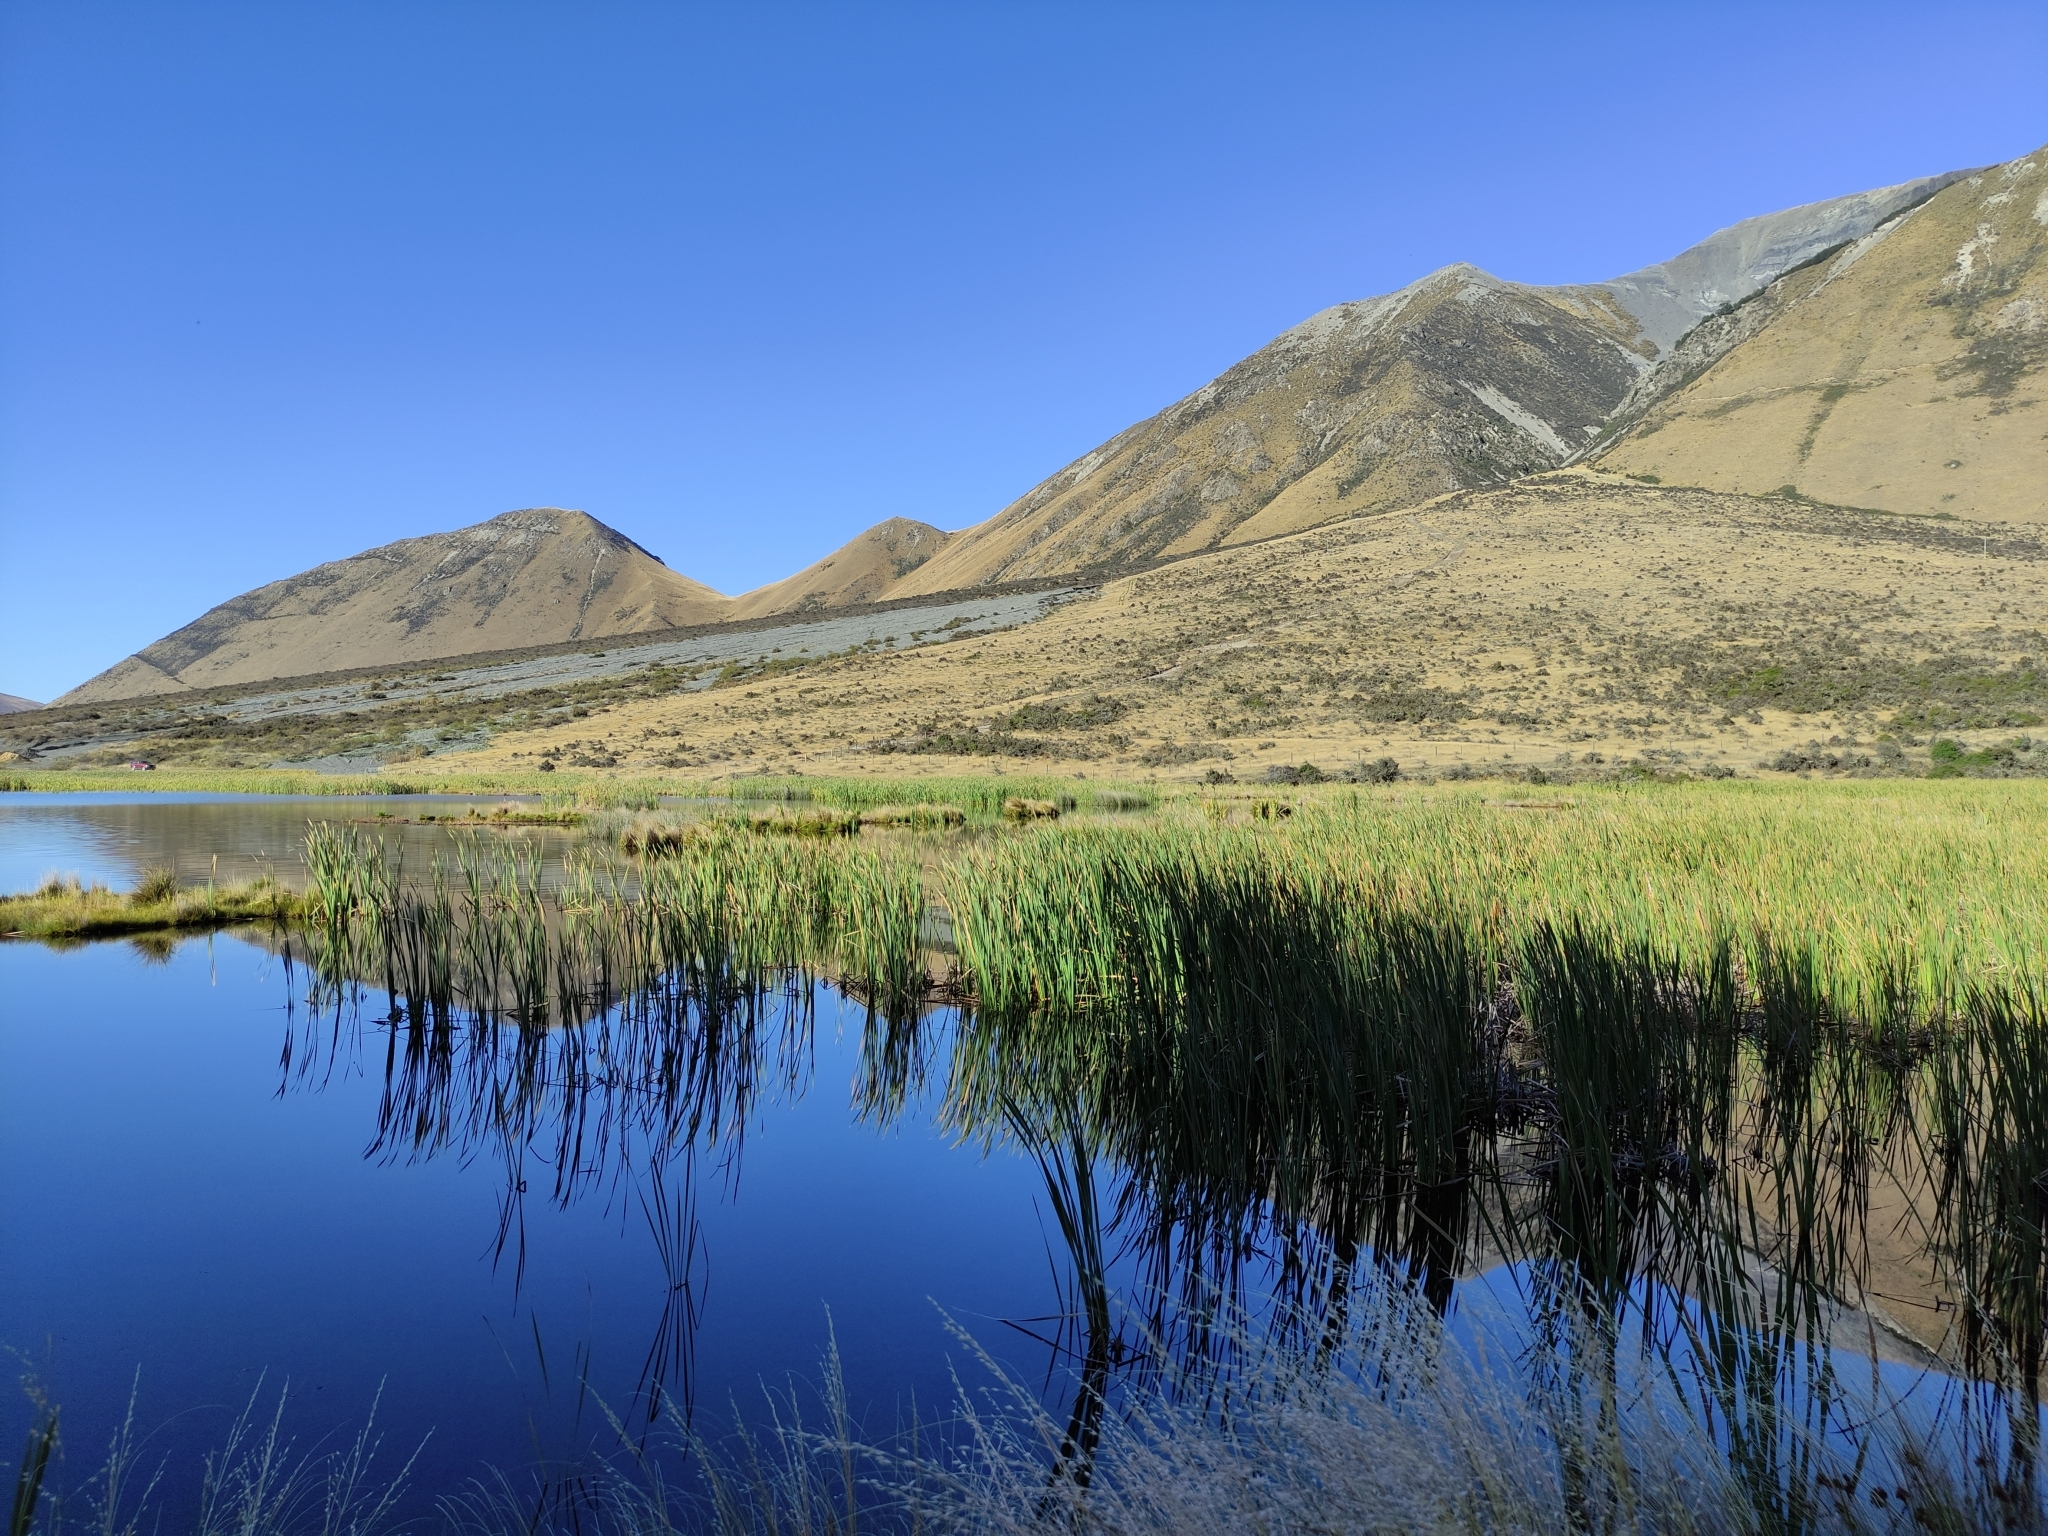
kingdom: Plantae
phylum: Tracheophyta
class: Liliopsida
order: Poales
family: Typhaceae
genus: Typha
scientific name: Typha orientalis
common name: Bullrush
